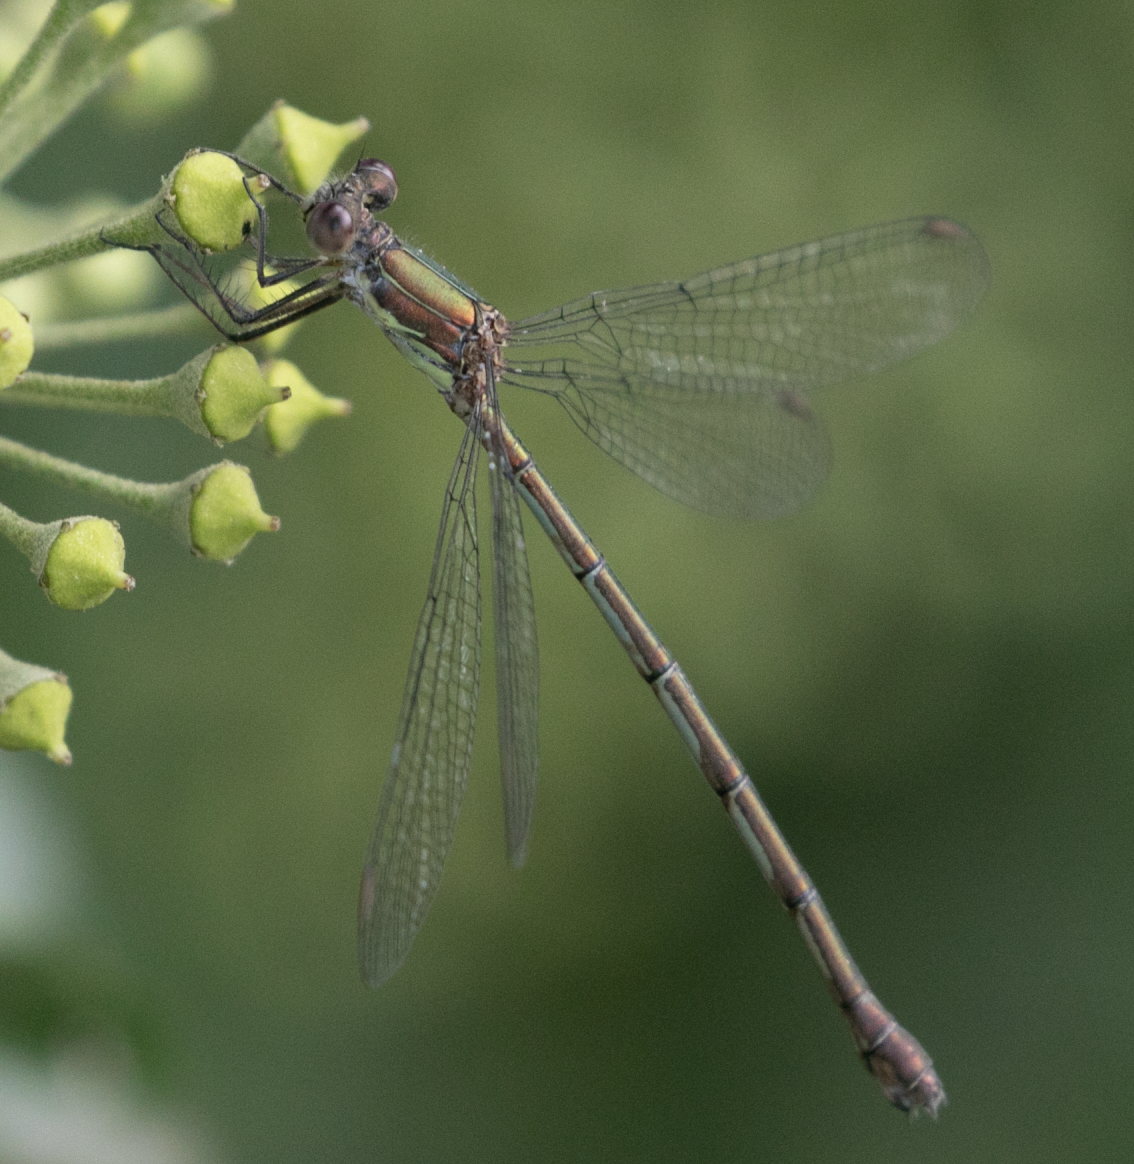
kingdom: Animalia
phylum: Arthropoda
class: Insecta
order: Odonata
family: Lestidae
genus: Chalcolestes
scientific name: Chalcolestes viridis
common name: Green emerald damselfly
